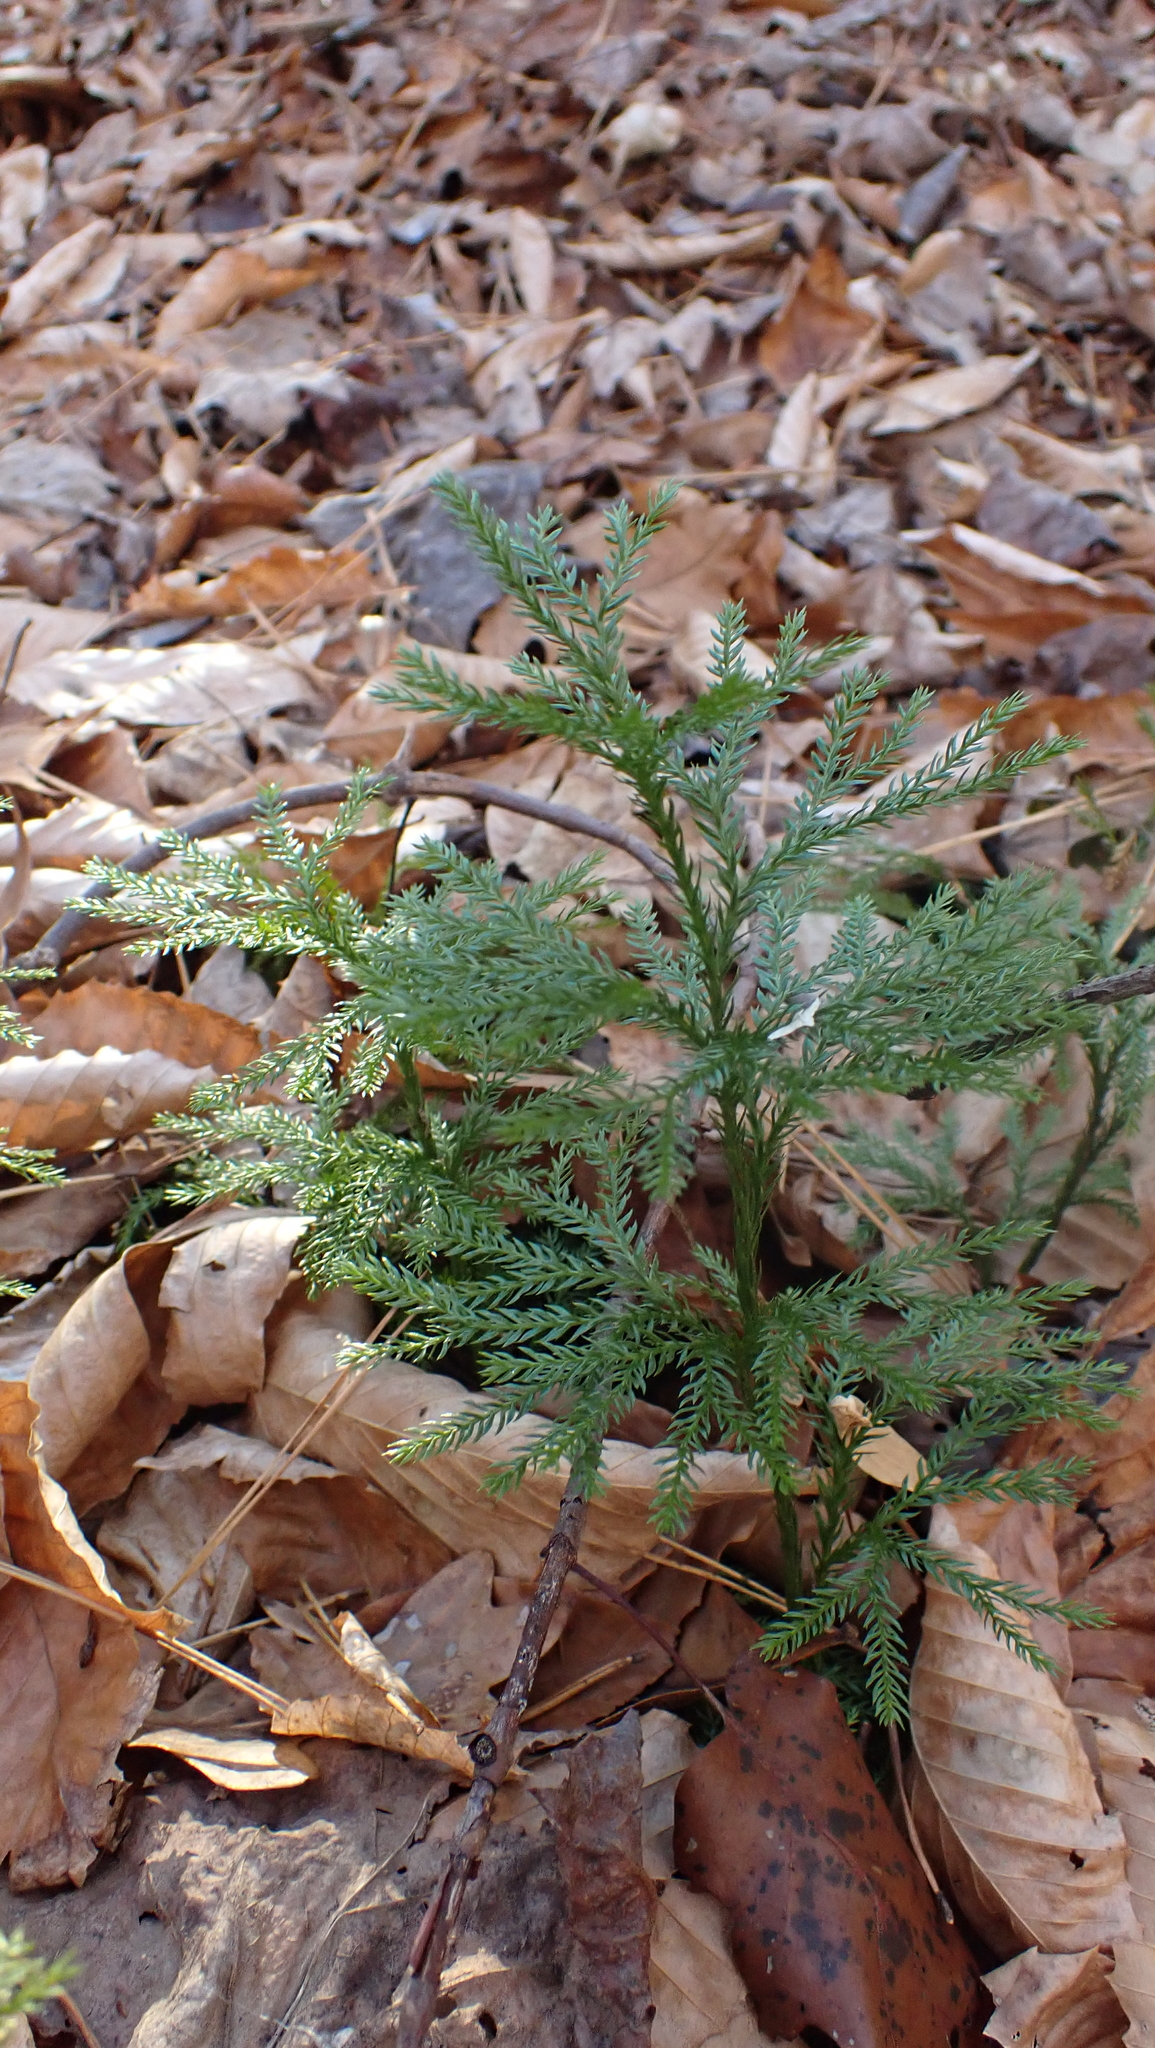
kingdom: Plantae
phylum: Tracheophyta
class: Lycopodiopsida
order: Lycopodiales
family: Lycopodiaceae
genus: Dendrolycopodium
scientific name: Dendrolycopodium obscurum
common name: Common ground-pine
